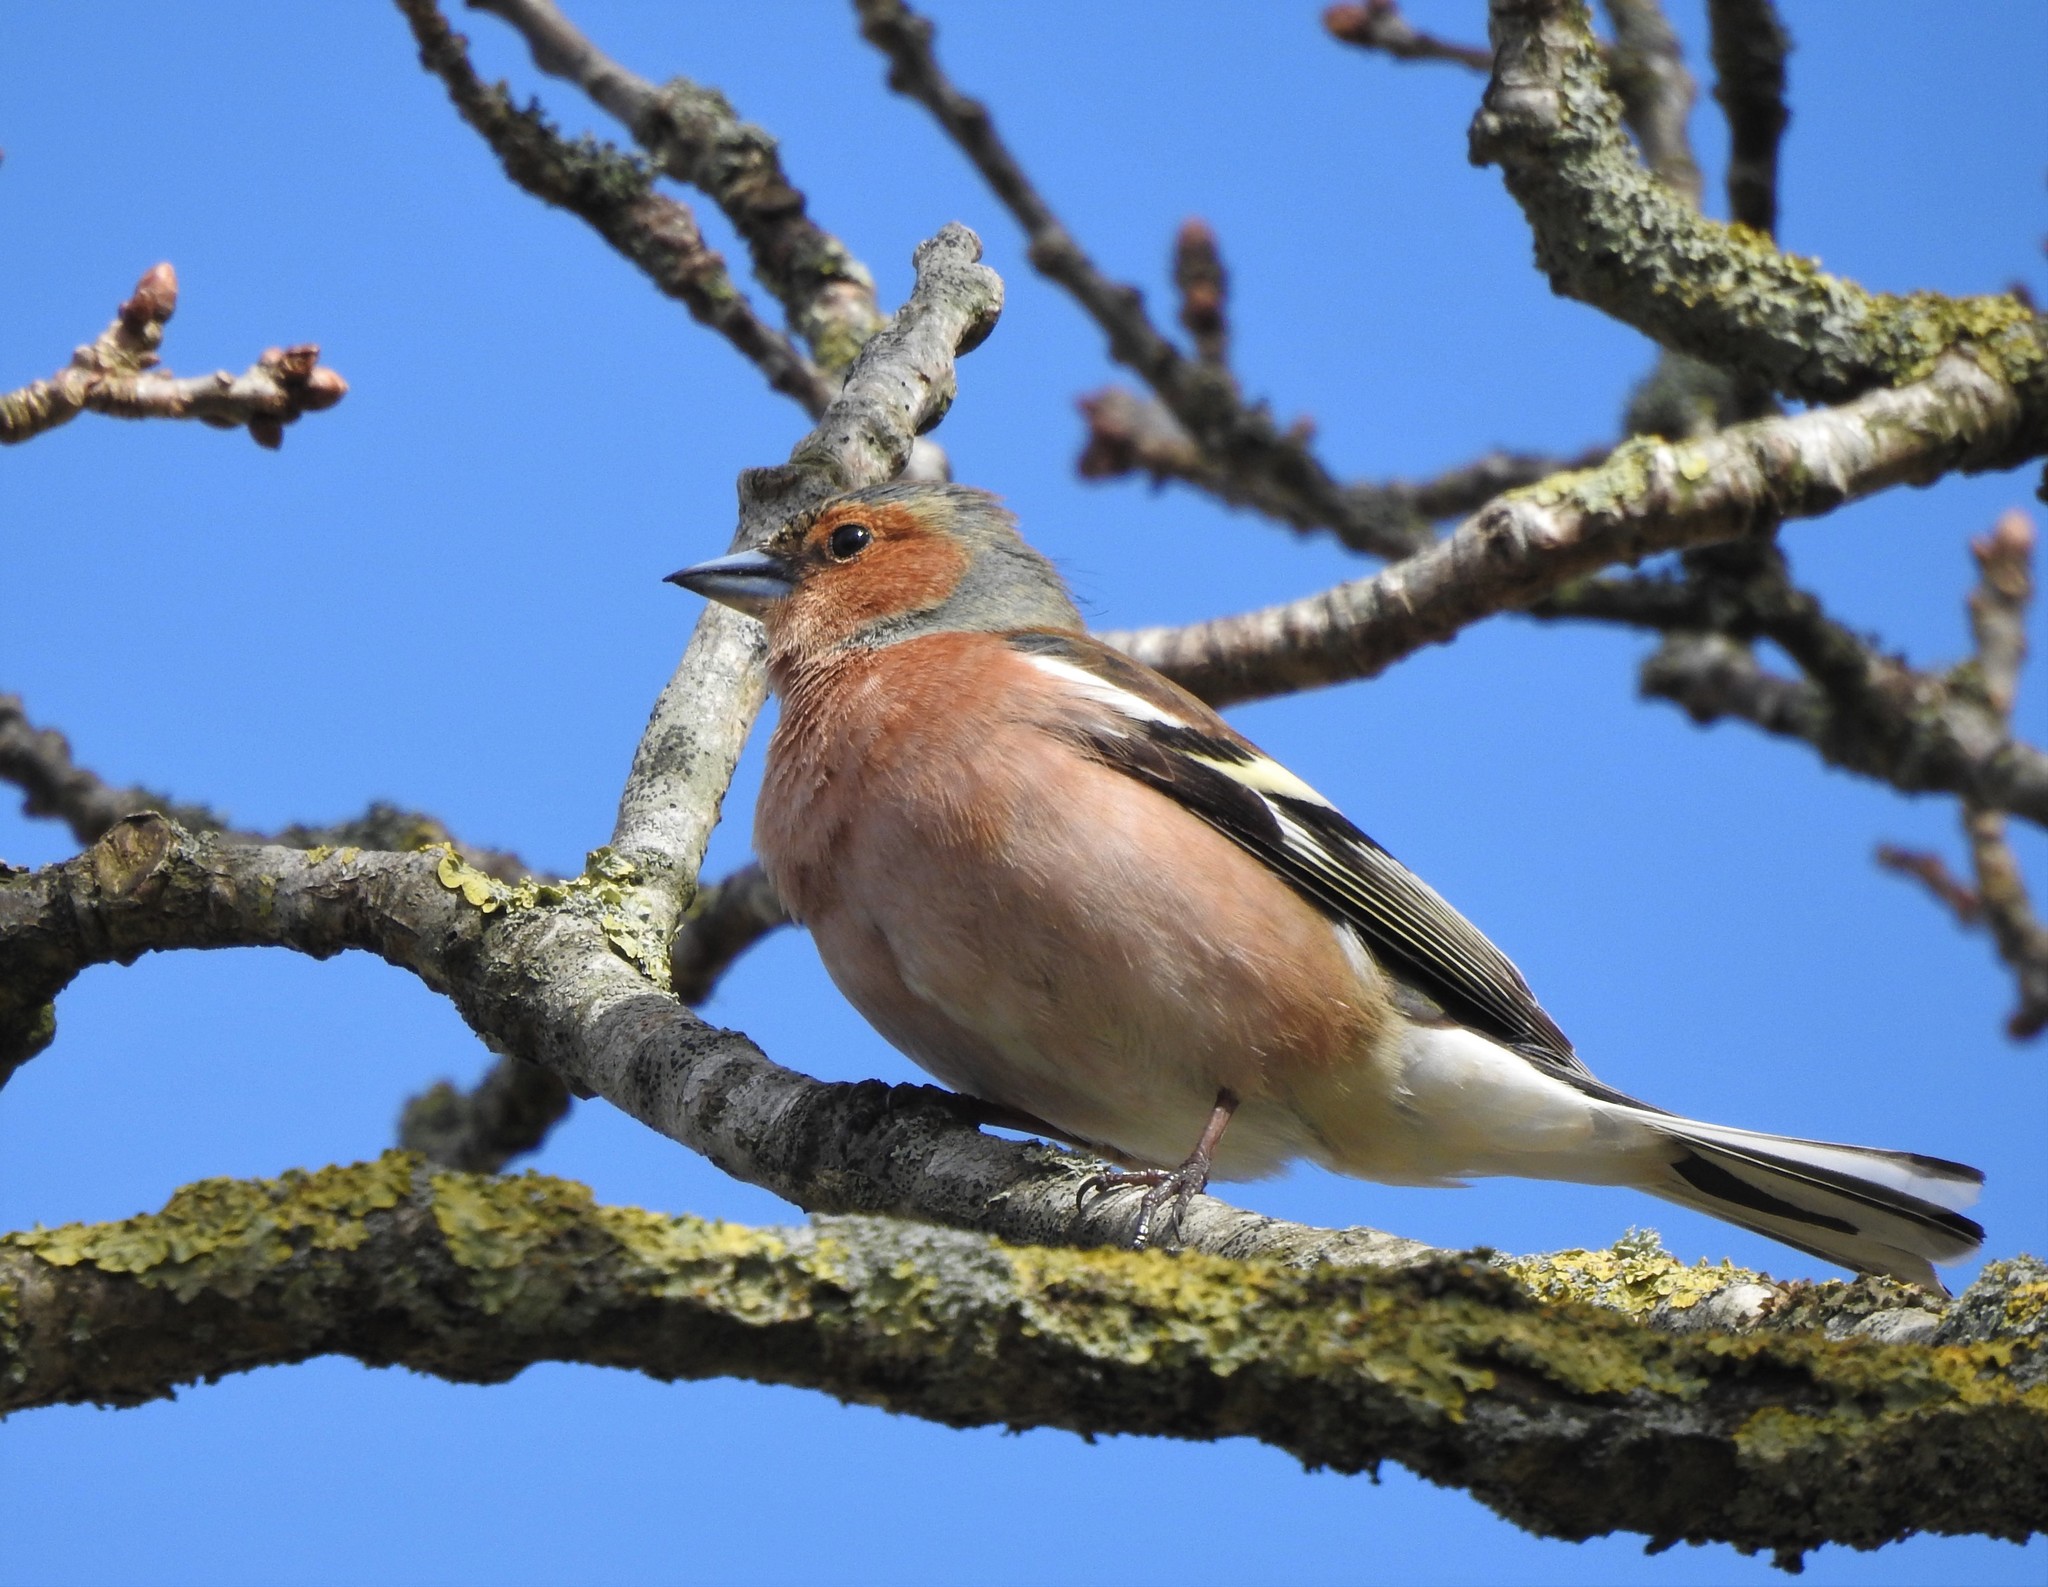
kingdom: Animalia
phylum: Chordata
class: Aves
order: Passeriformes
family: Fringillidae
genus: Fringilla
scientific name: Fringilla coelebs
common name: Common chaffinch
